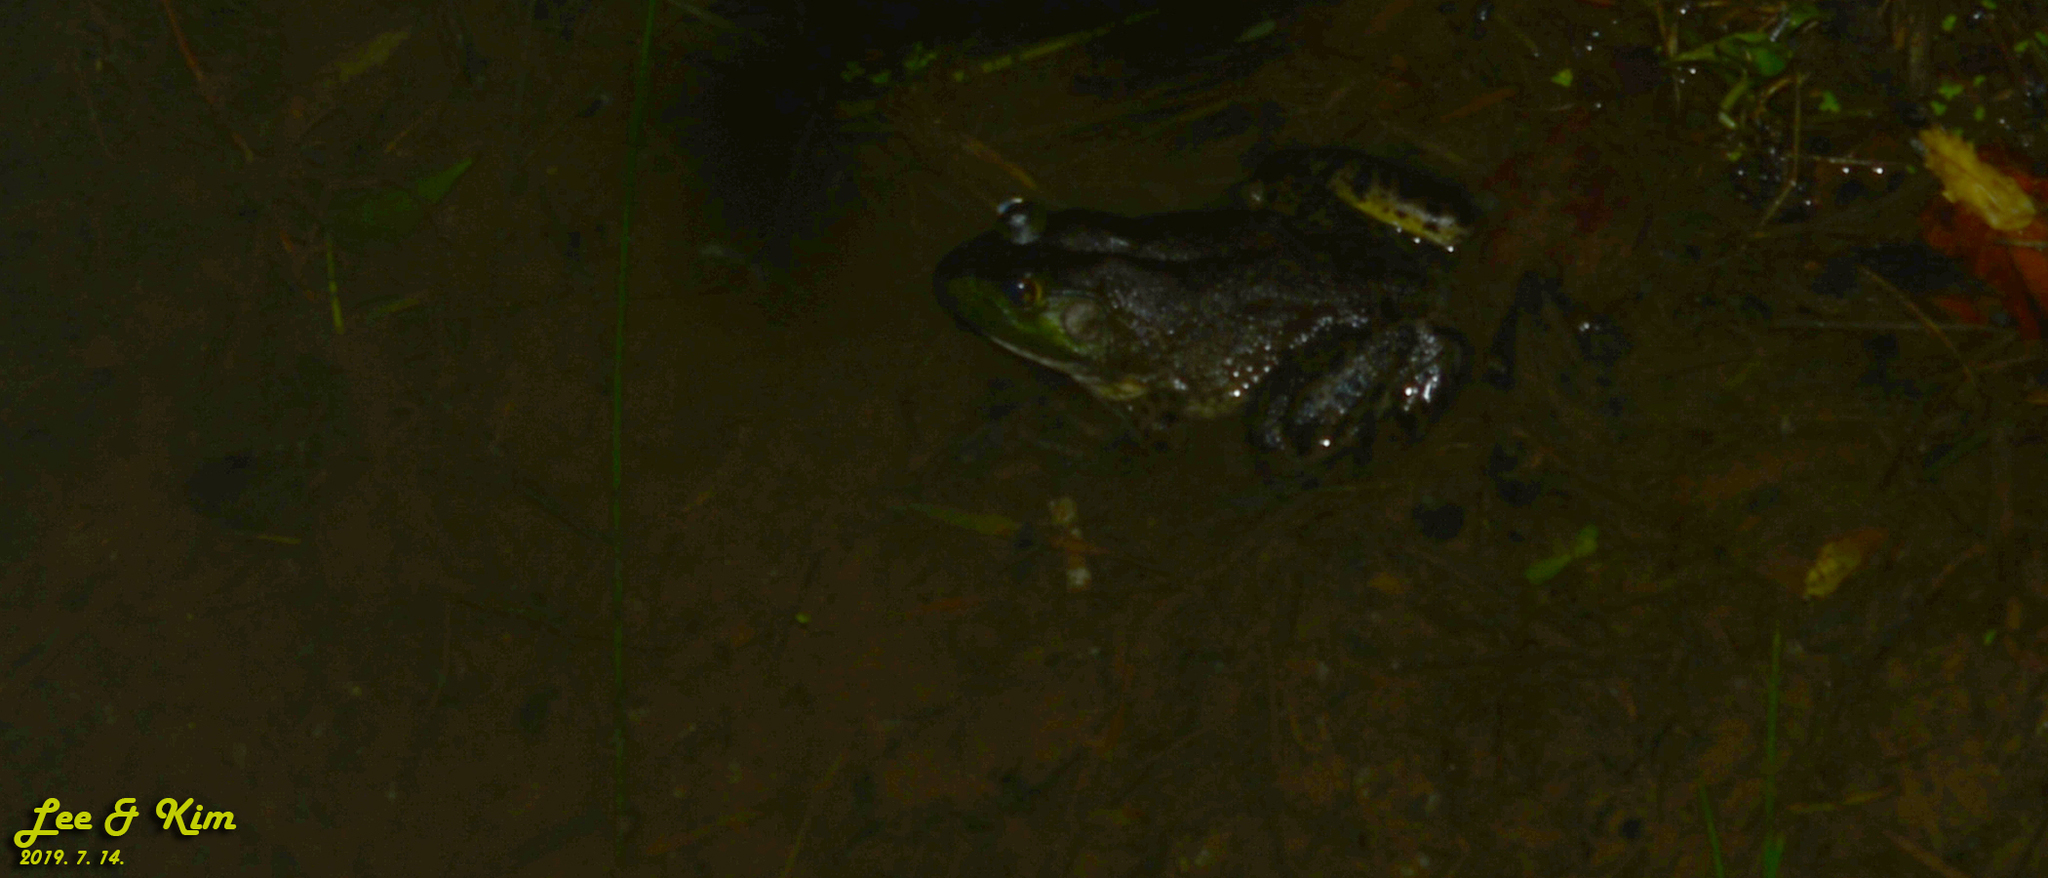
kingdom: Animalia
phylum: Chordata
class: Amphibia
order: Anura
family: Ranidae
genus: Lithobates
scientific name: Lithobates catesbeianus
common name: American bullfrog
